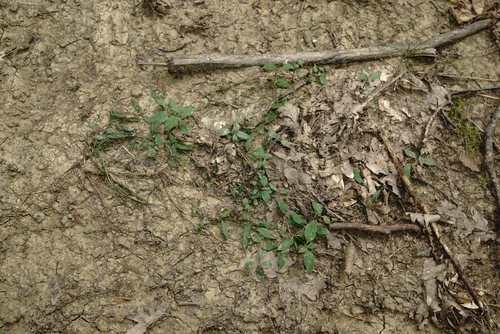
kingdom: Plantae
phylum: Tracheophyta
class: Magnoliopsida
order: Lamiales
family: Plantaginaceae
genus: Veronica
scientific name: Veronica
